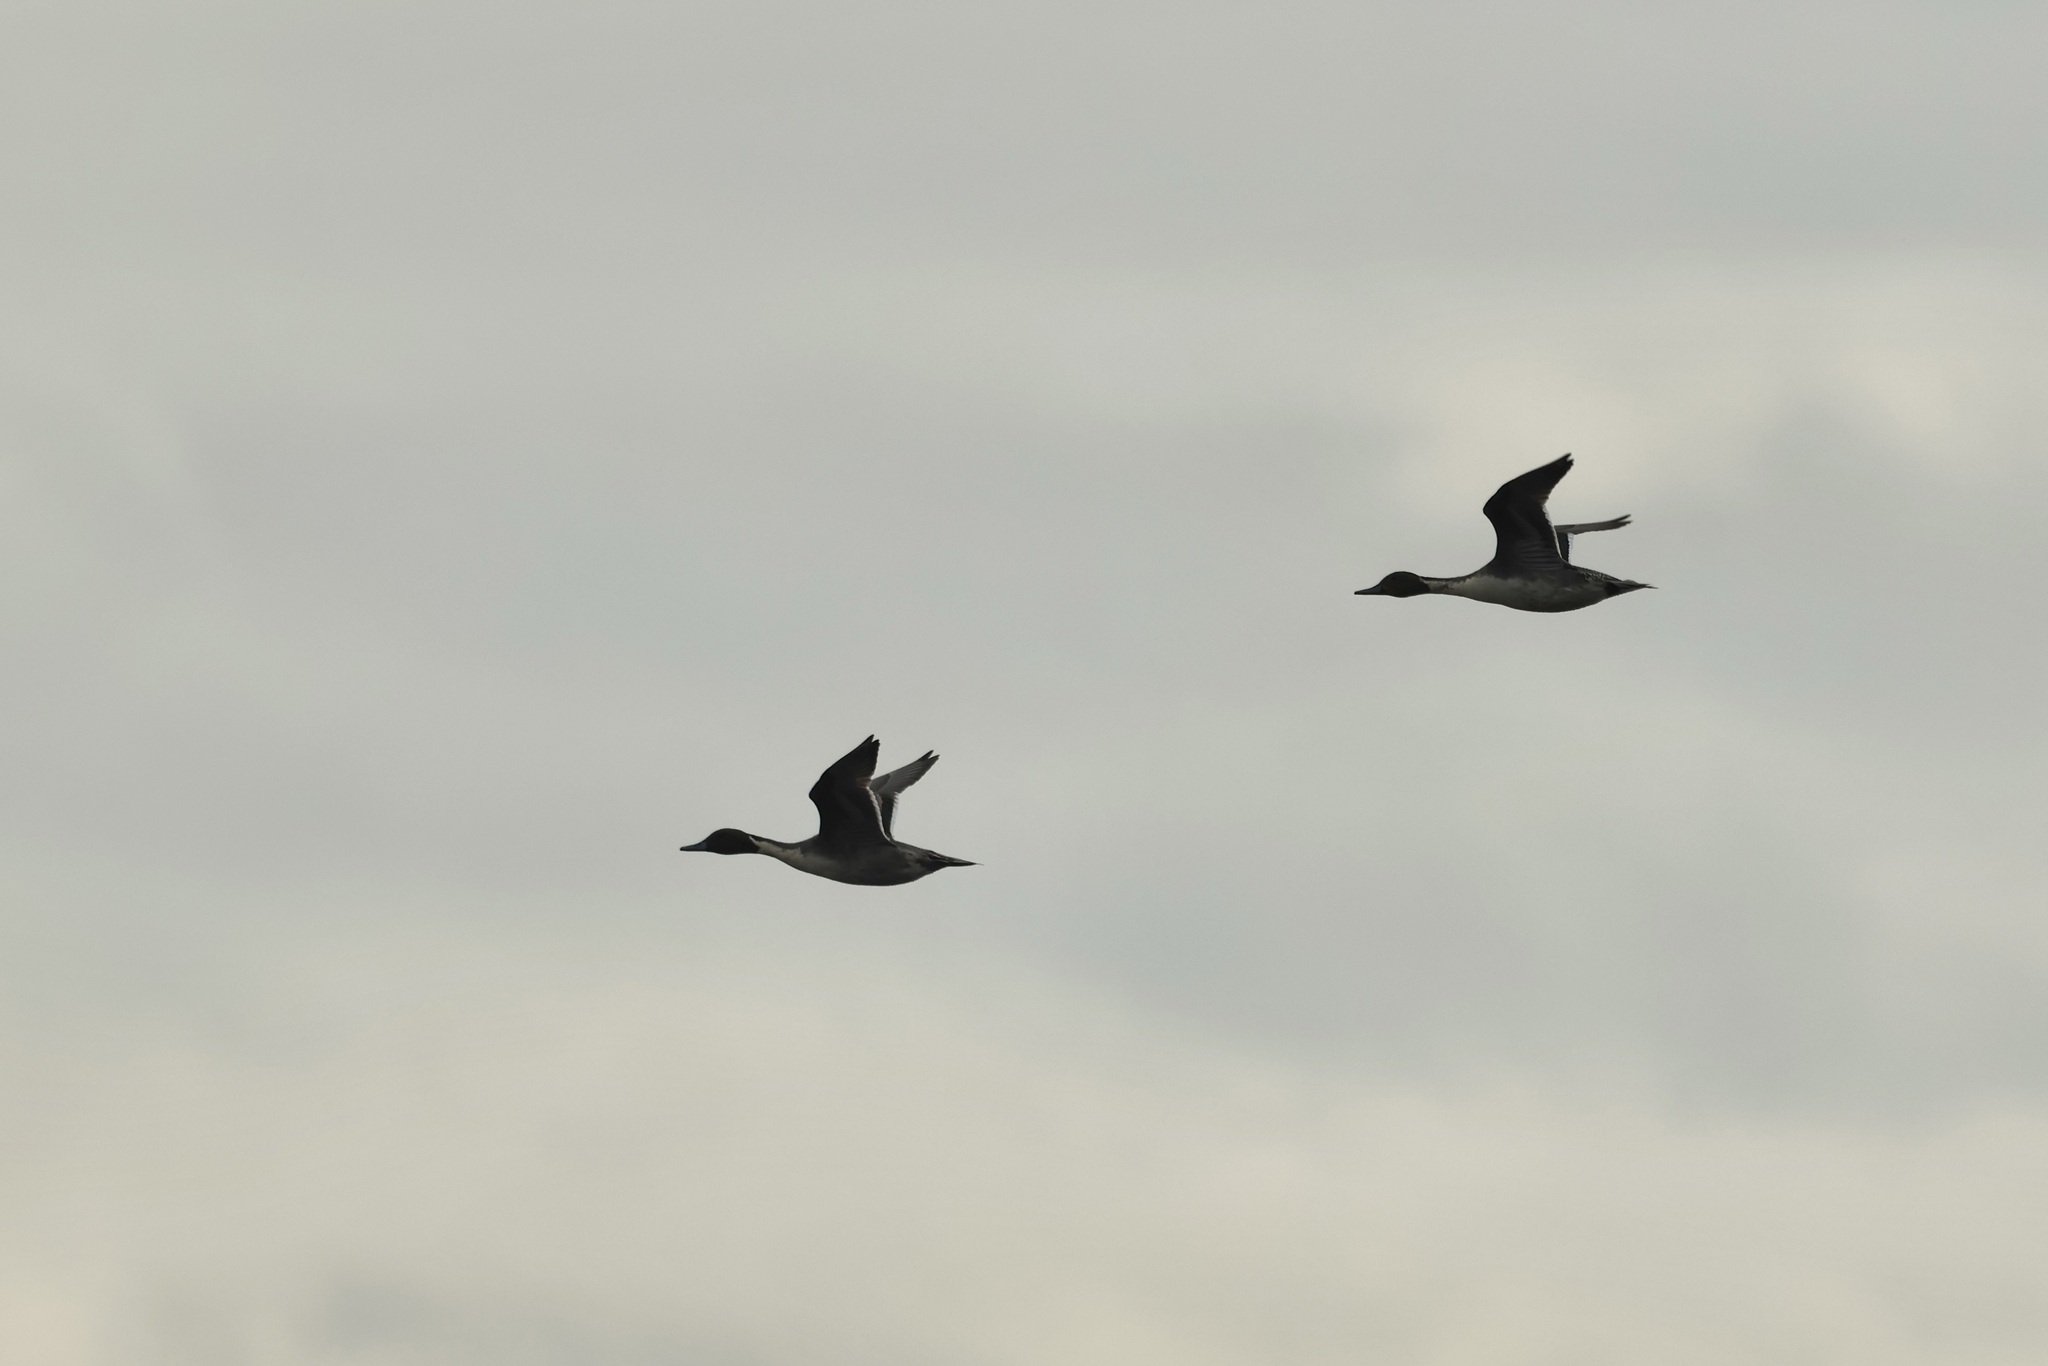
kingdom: Animalia
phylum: Chordata
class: Aves
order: Anseriformes
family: Anatidae
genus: Anas
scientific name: Anas acuta
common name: Northern pintail
